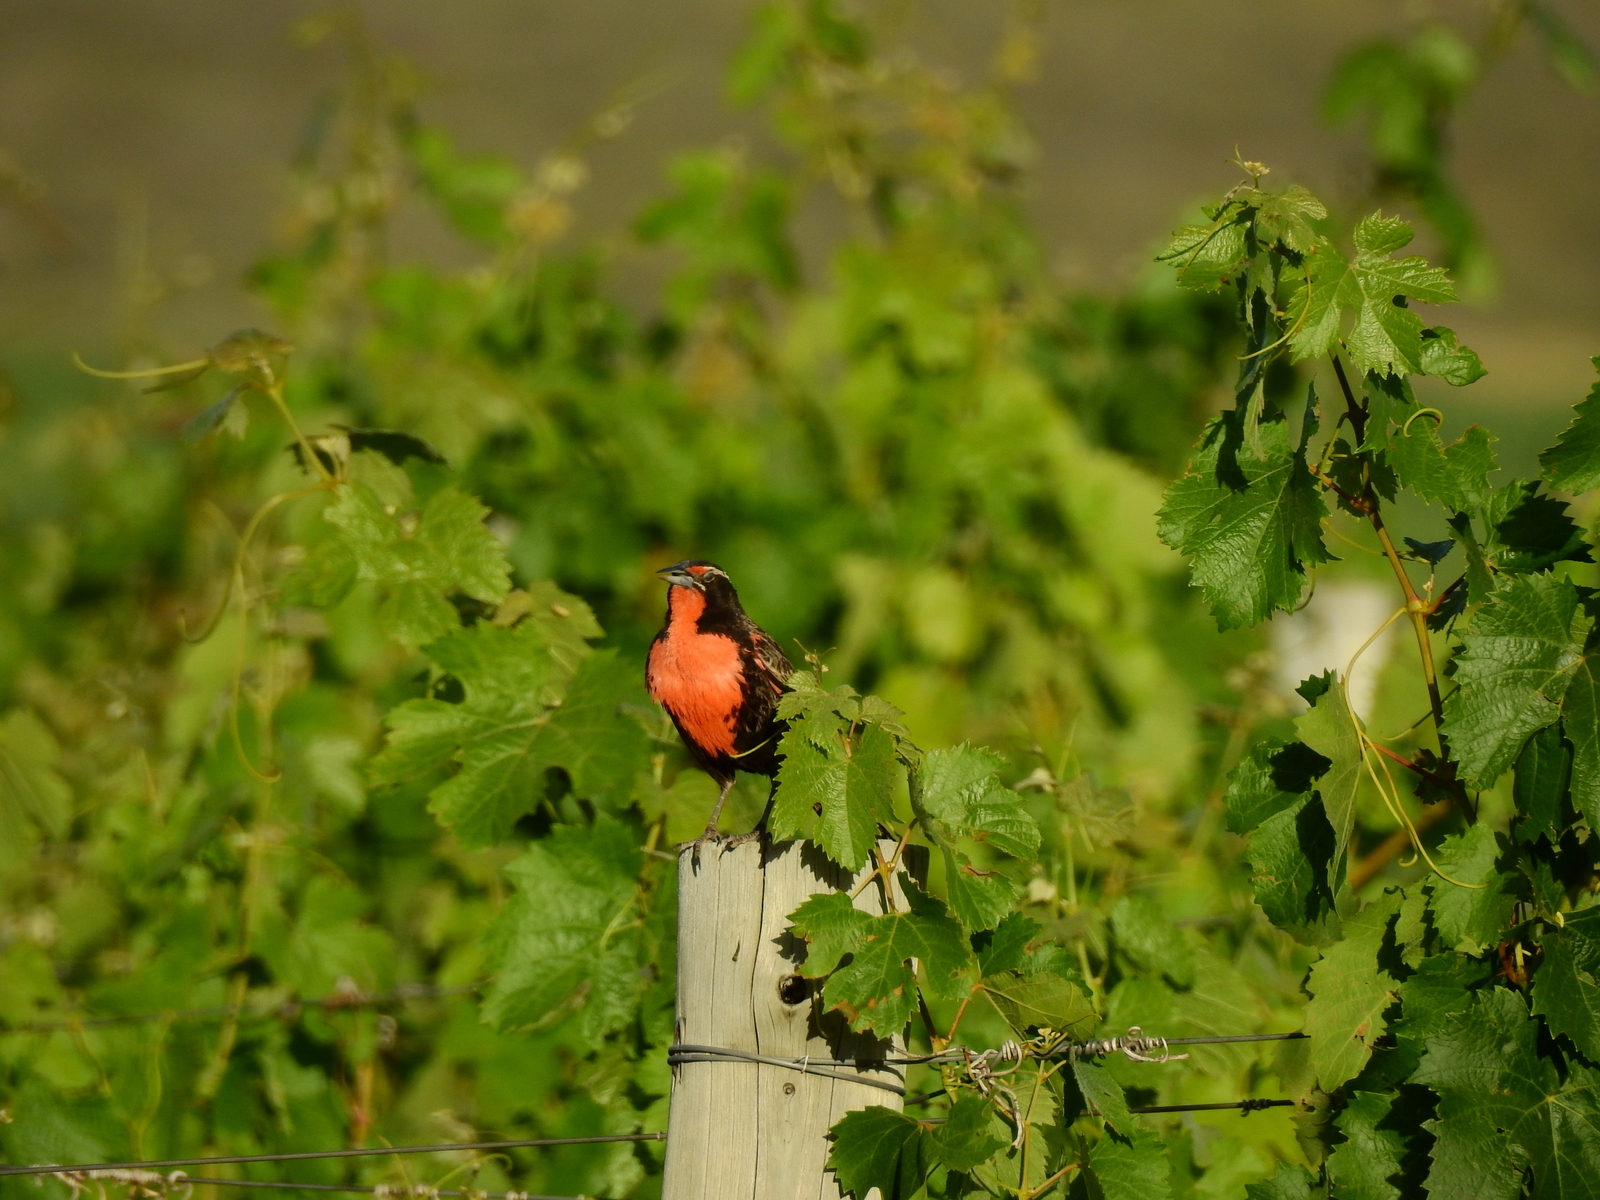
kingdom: Animalia
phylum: Chordata
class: Aves
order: Passeriformes
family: Icteridae
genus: Sturnella
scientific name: Sturnella loyca
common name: Long-tailed meadowlark
